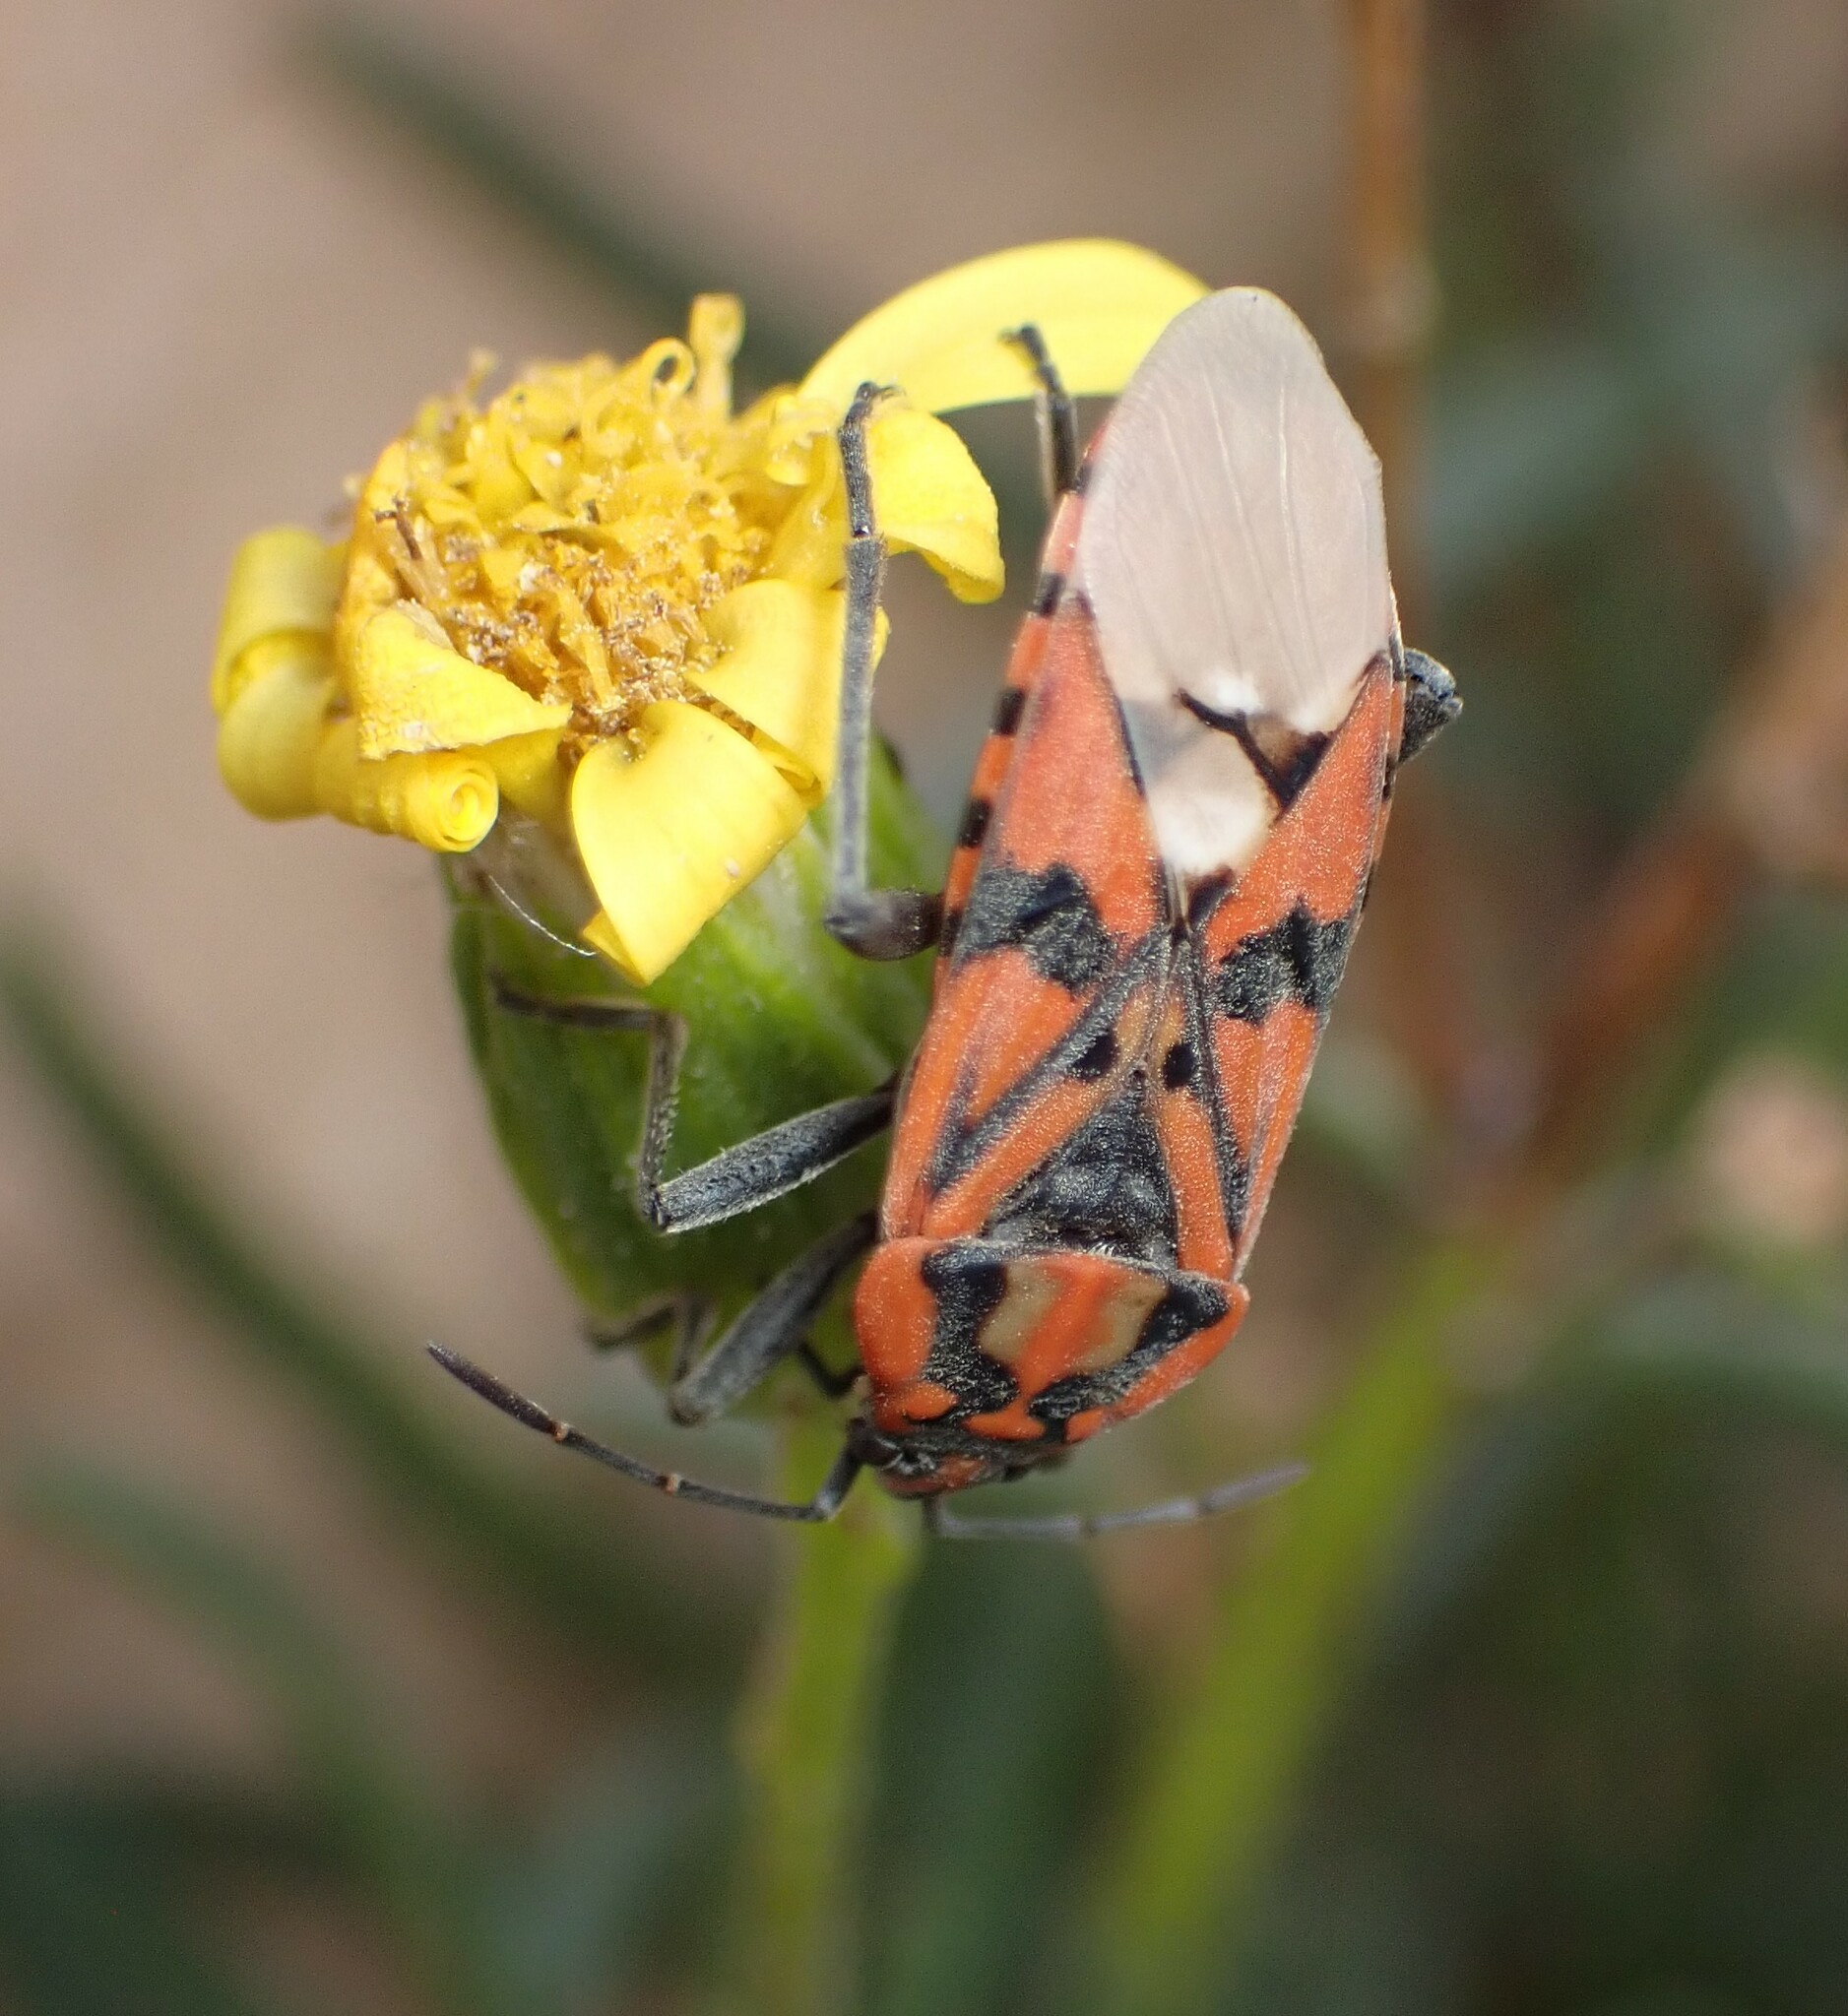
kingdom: Animalia
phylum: Arthropoda
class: Insecta
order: Hemiptera
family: Lygaeidae
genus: Spilostethus
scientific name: Spilostethus pandurus
